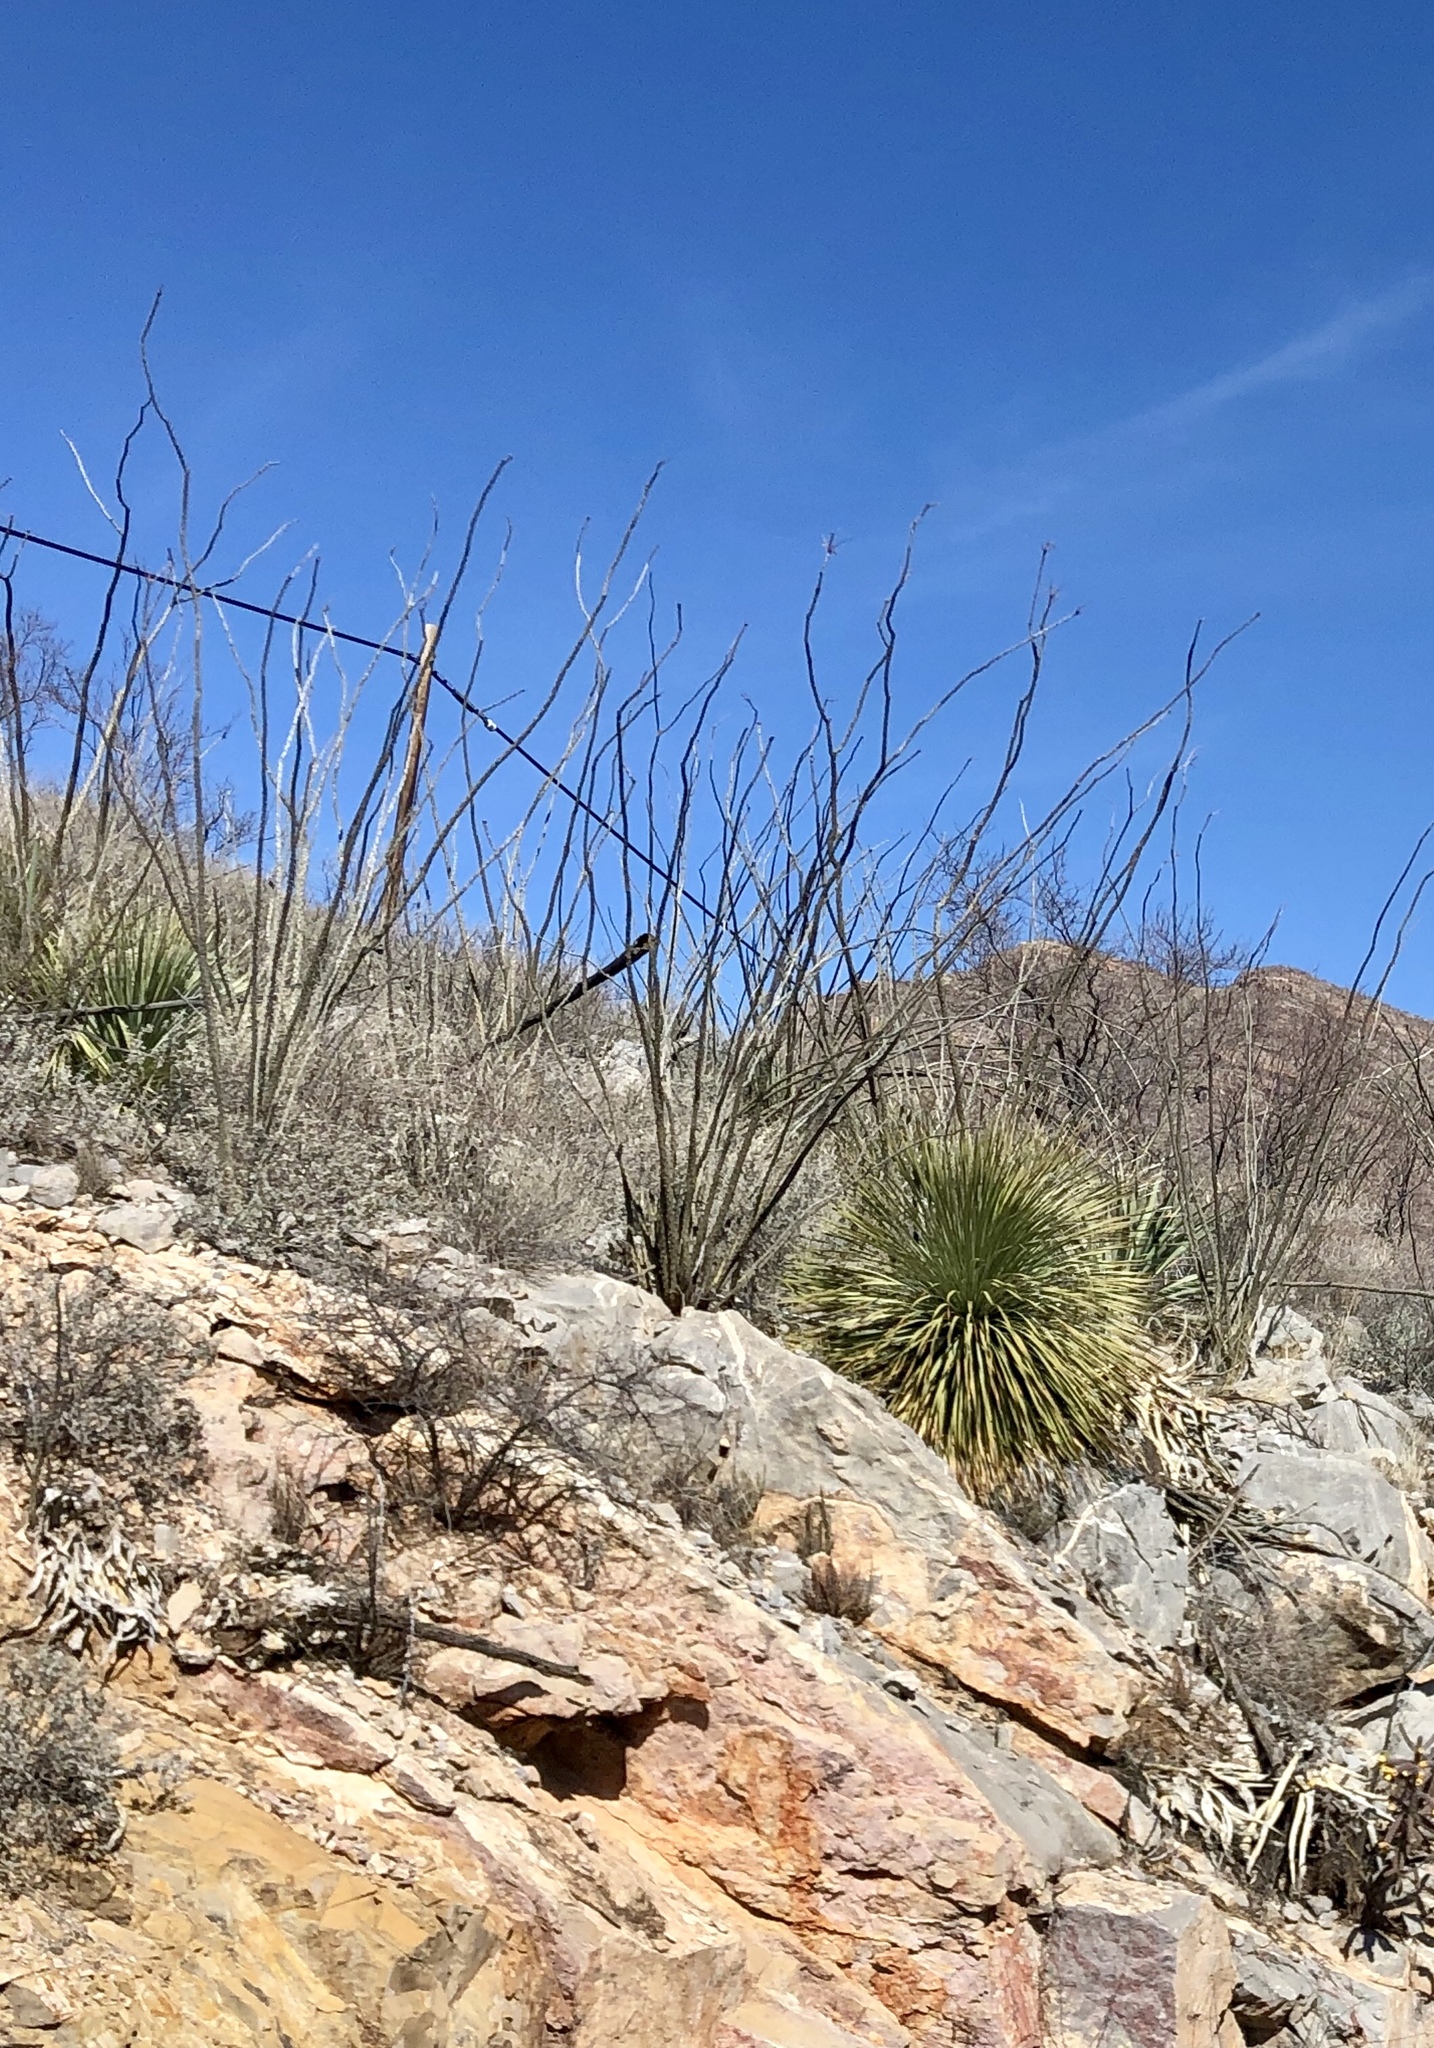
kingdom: Plantae
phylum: Tracheophyta
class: Magnoliopsida
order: Ericales
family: Fouquieriaceae
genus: Fouquieria
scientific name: Fouquieria splendens
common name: Vine-cactus
